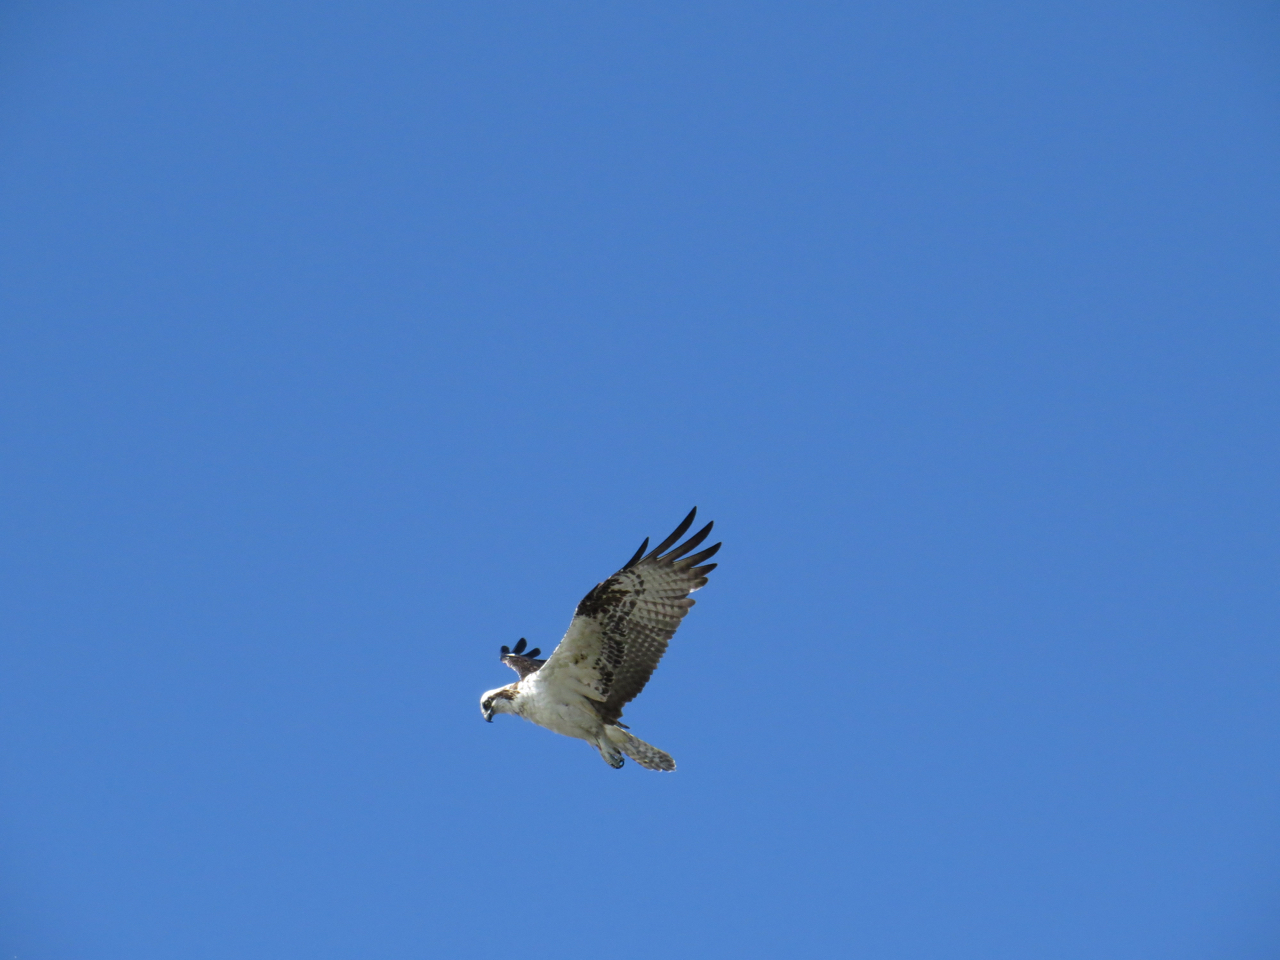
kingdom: Animalia
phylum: Chordata
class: Aves
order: Accipitriformes
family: Pandionidae
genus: Pandion
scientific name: Pandion haliaetus
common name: Osprey
